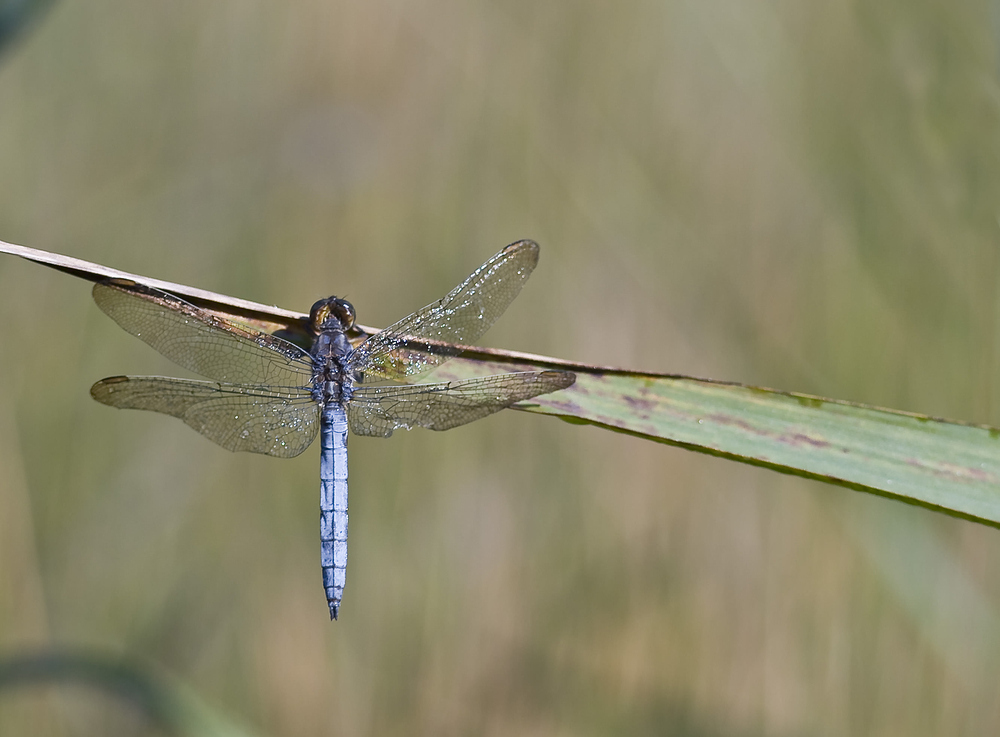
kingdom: Animalia
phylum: Arthropoda
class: Insecta
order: Odonata
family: Libellulidae
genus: Orthetrum
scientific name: Orthetrum coerulescens
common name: Keeled skimmer
